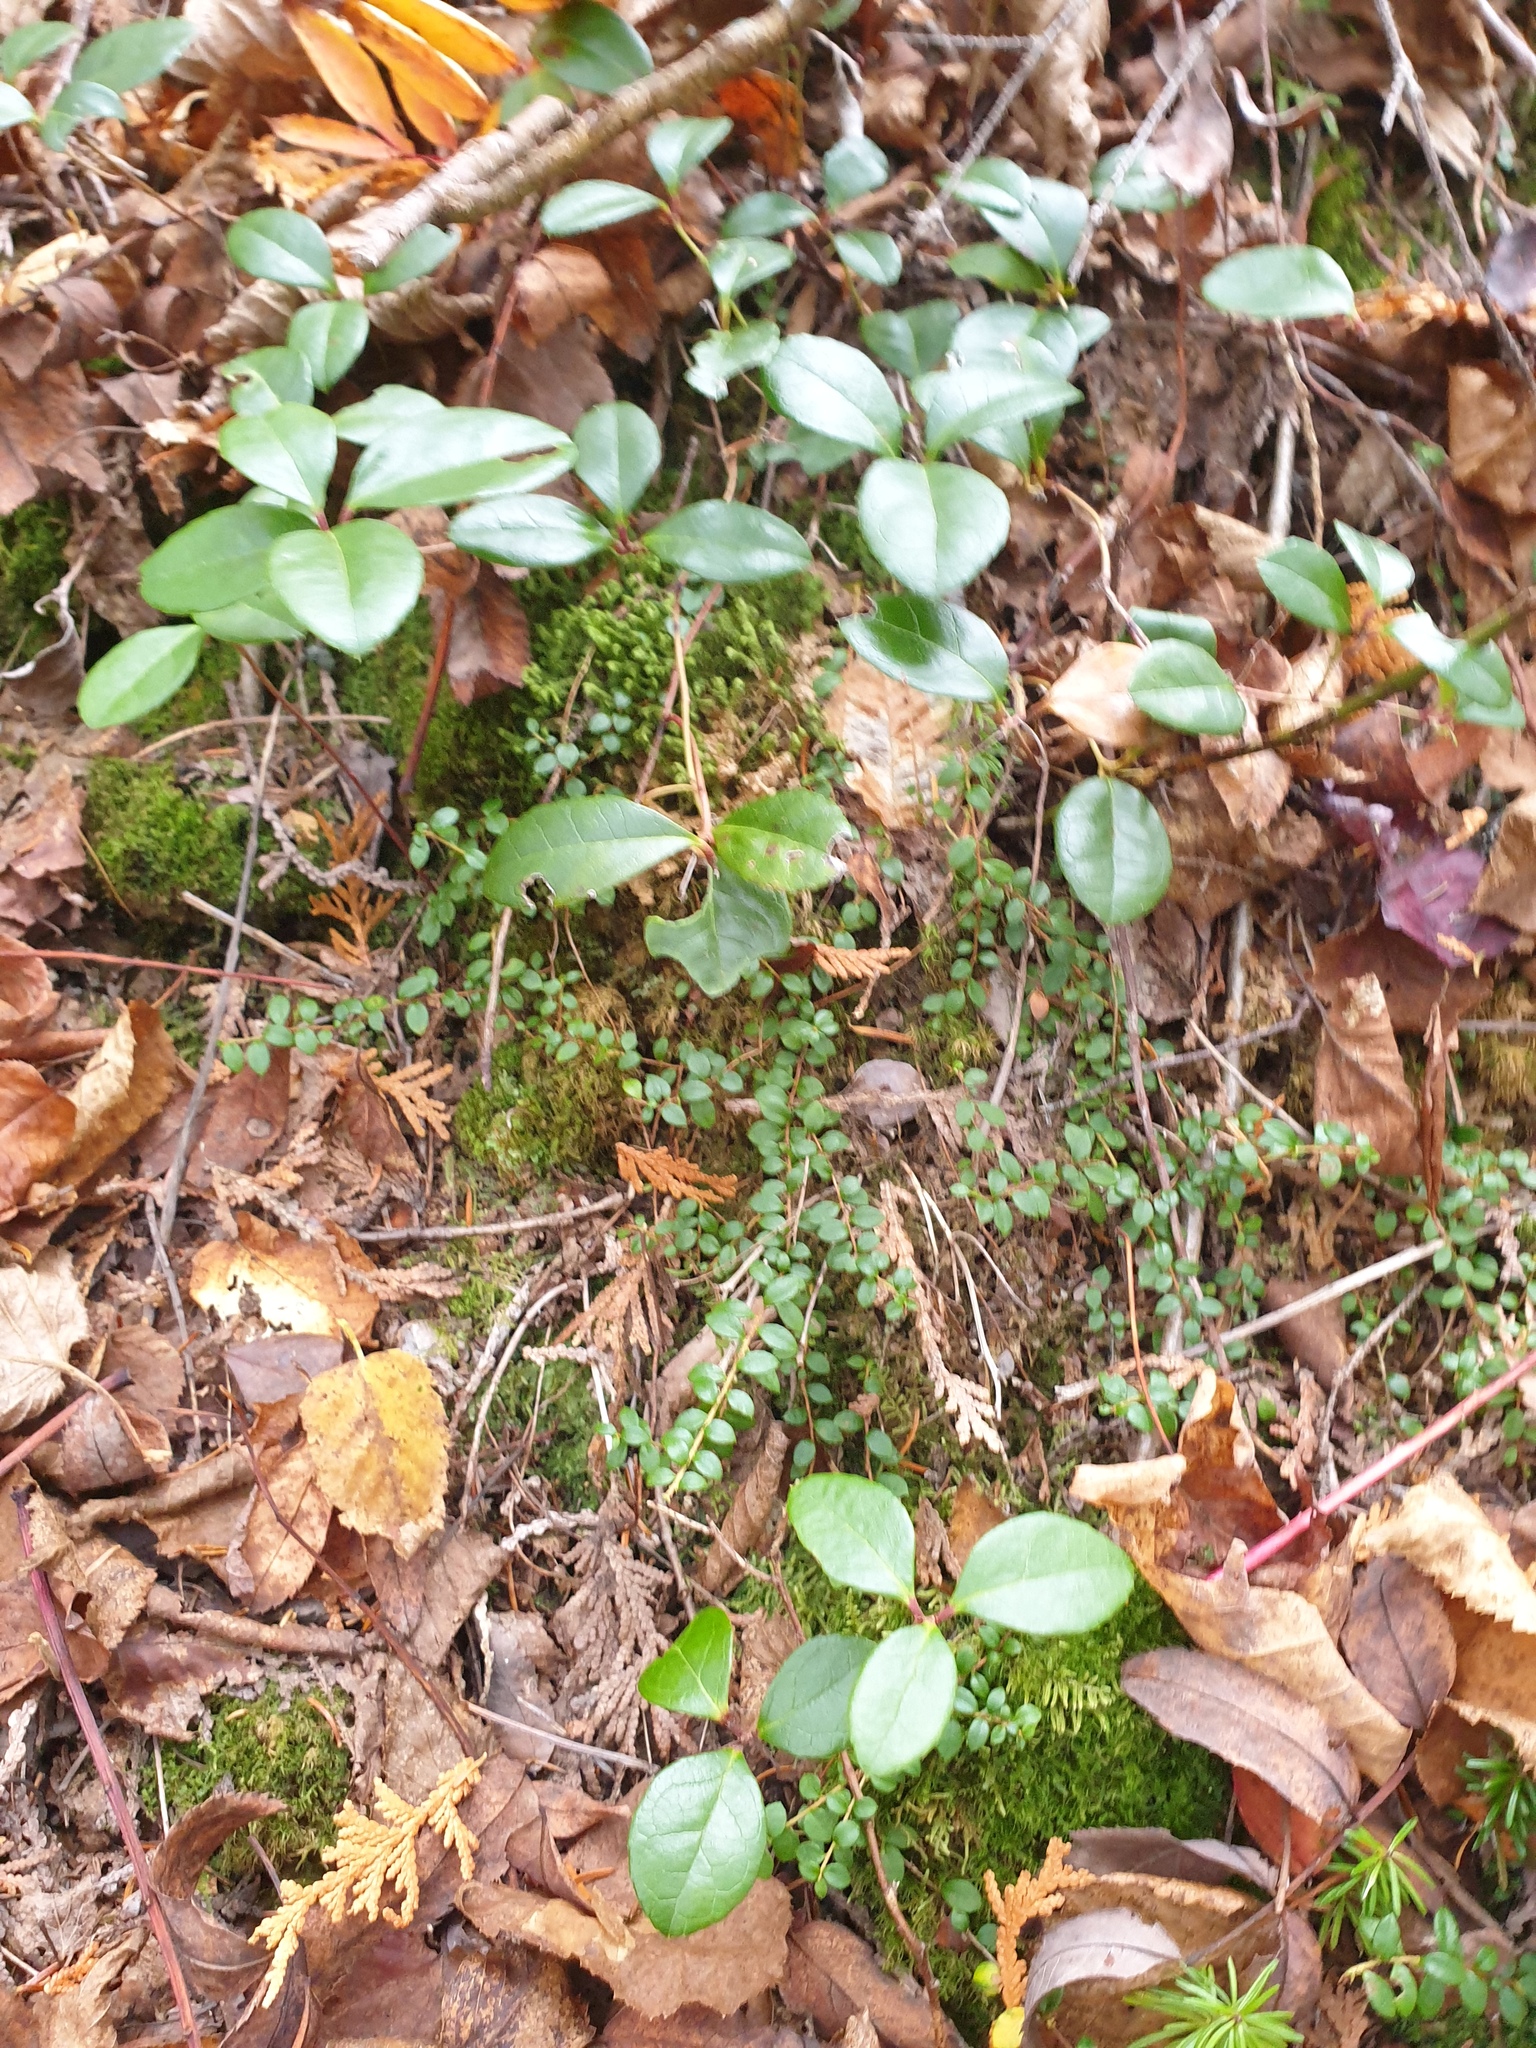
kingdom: Plantae
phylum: Tracheophyta
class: Magnoliopsida
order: Ericales
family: Ericaceae
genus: Gaultheria
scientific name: Gaultheria procumbens
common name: Checkerberry
